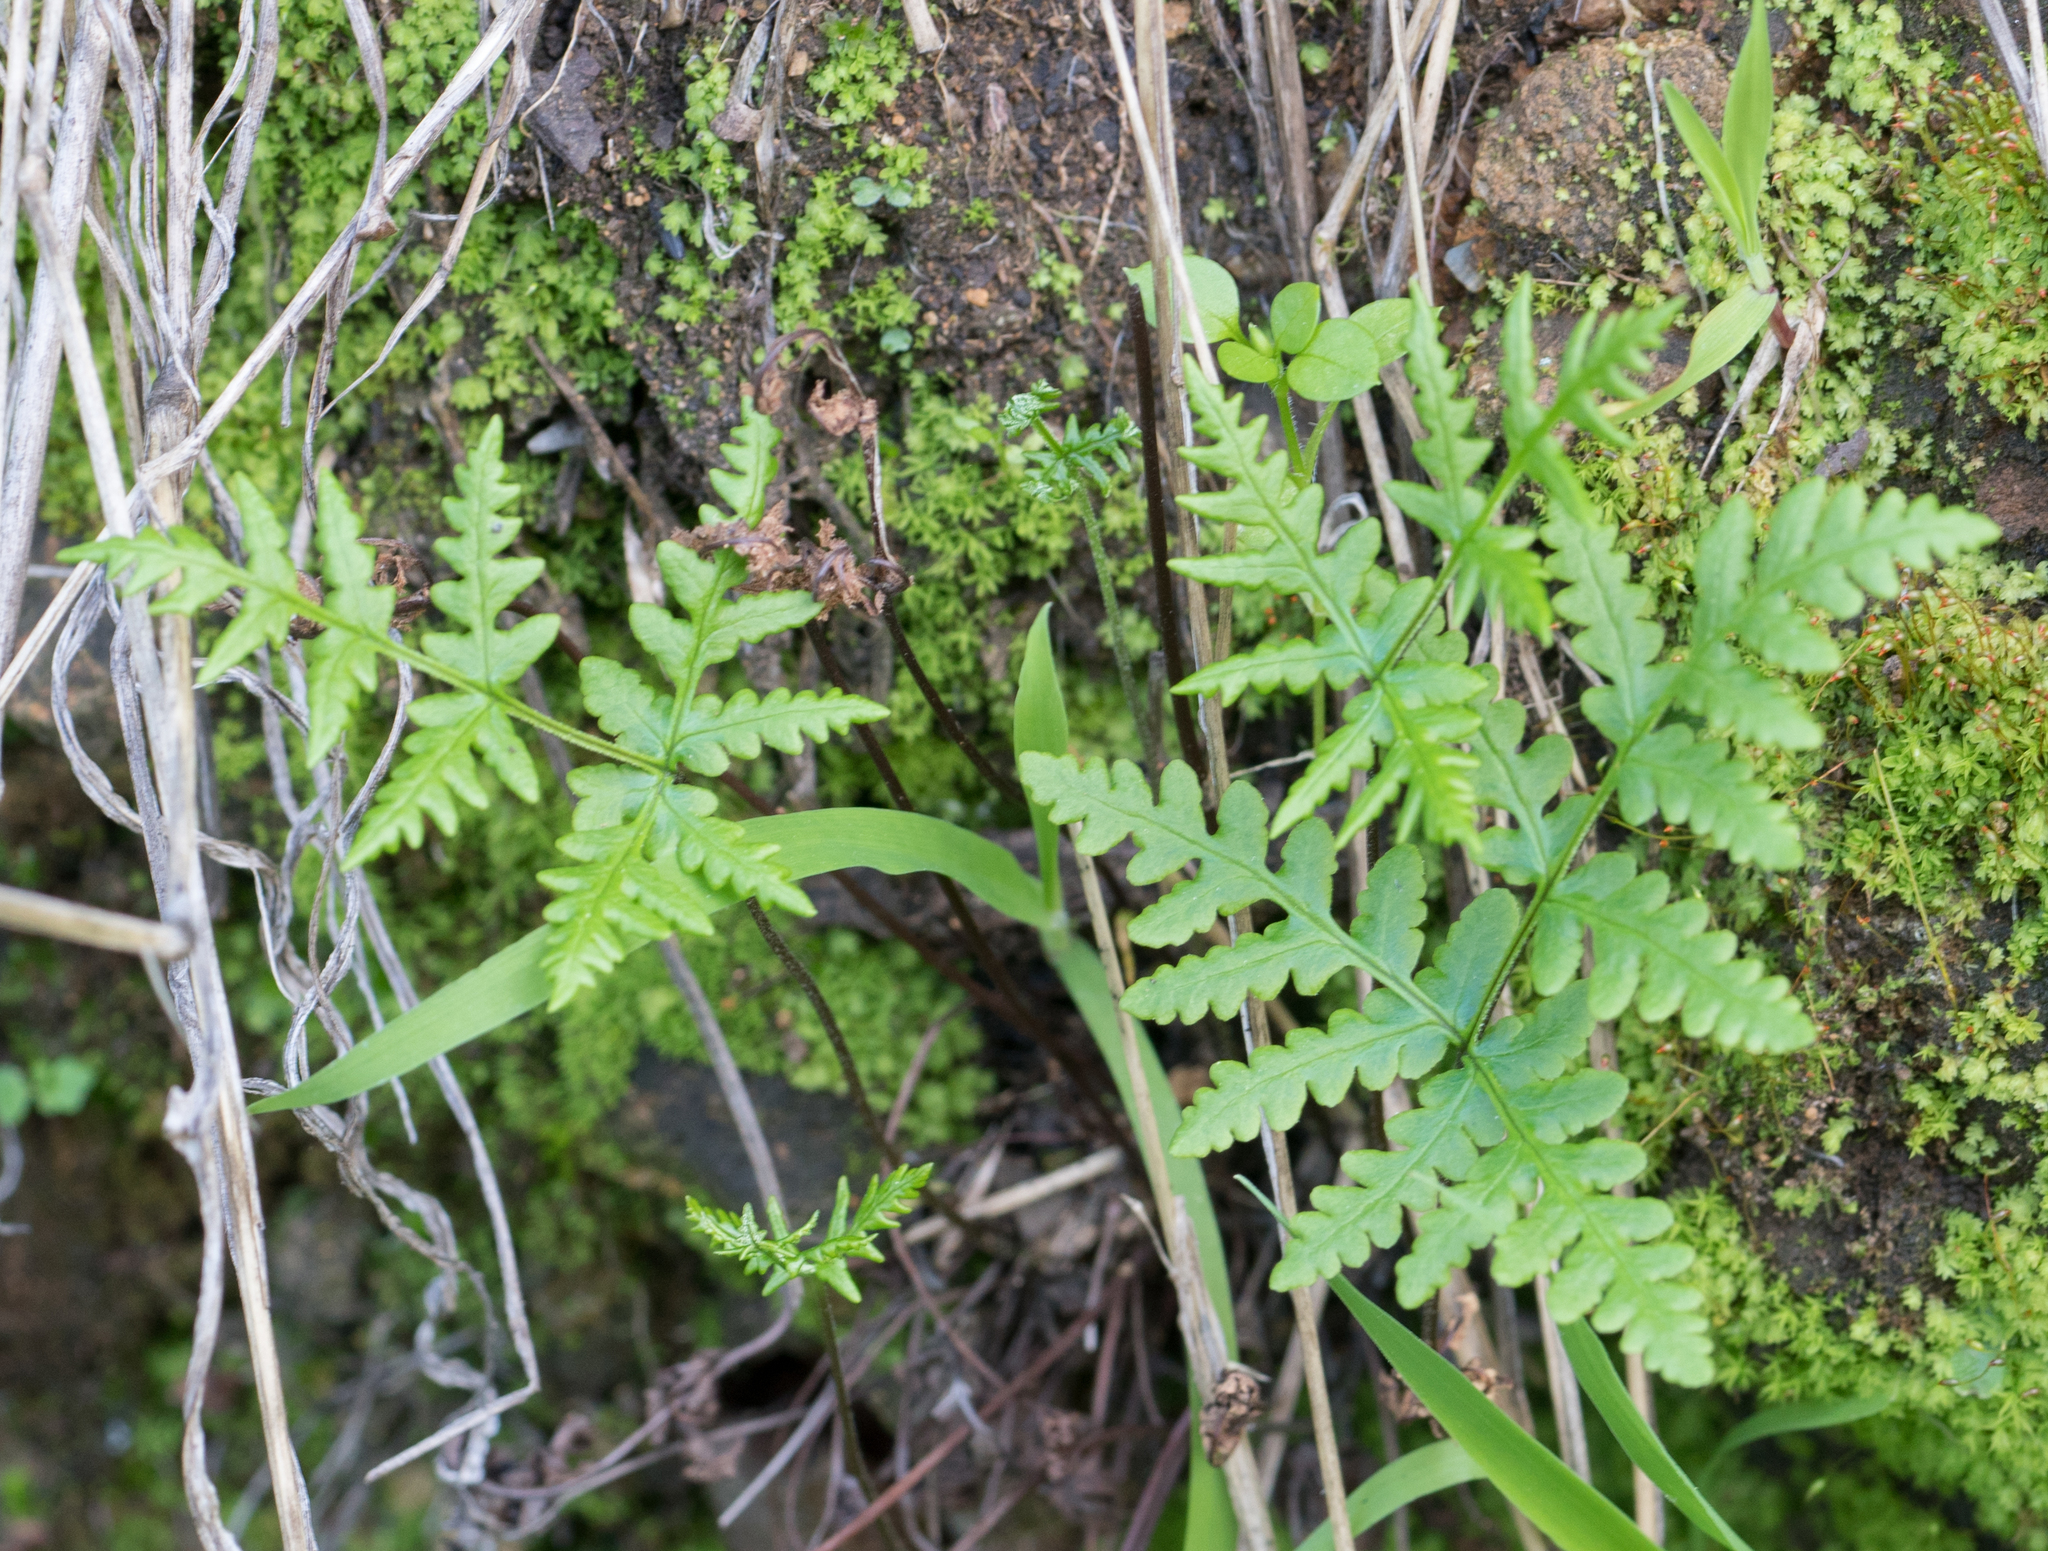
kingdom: Plantae
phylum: Tracheophyta
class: Polypodiopsida
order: Polypodiales
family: Pteridaceae
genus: Pentagramma
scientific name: Pentagramma triangularis
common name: Gold fern
